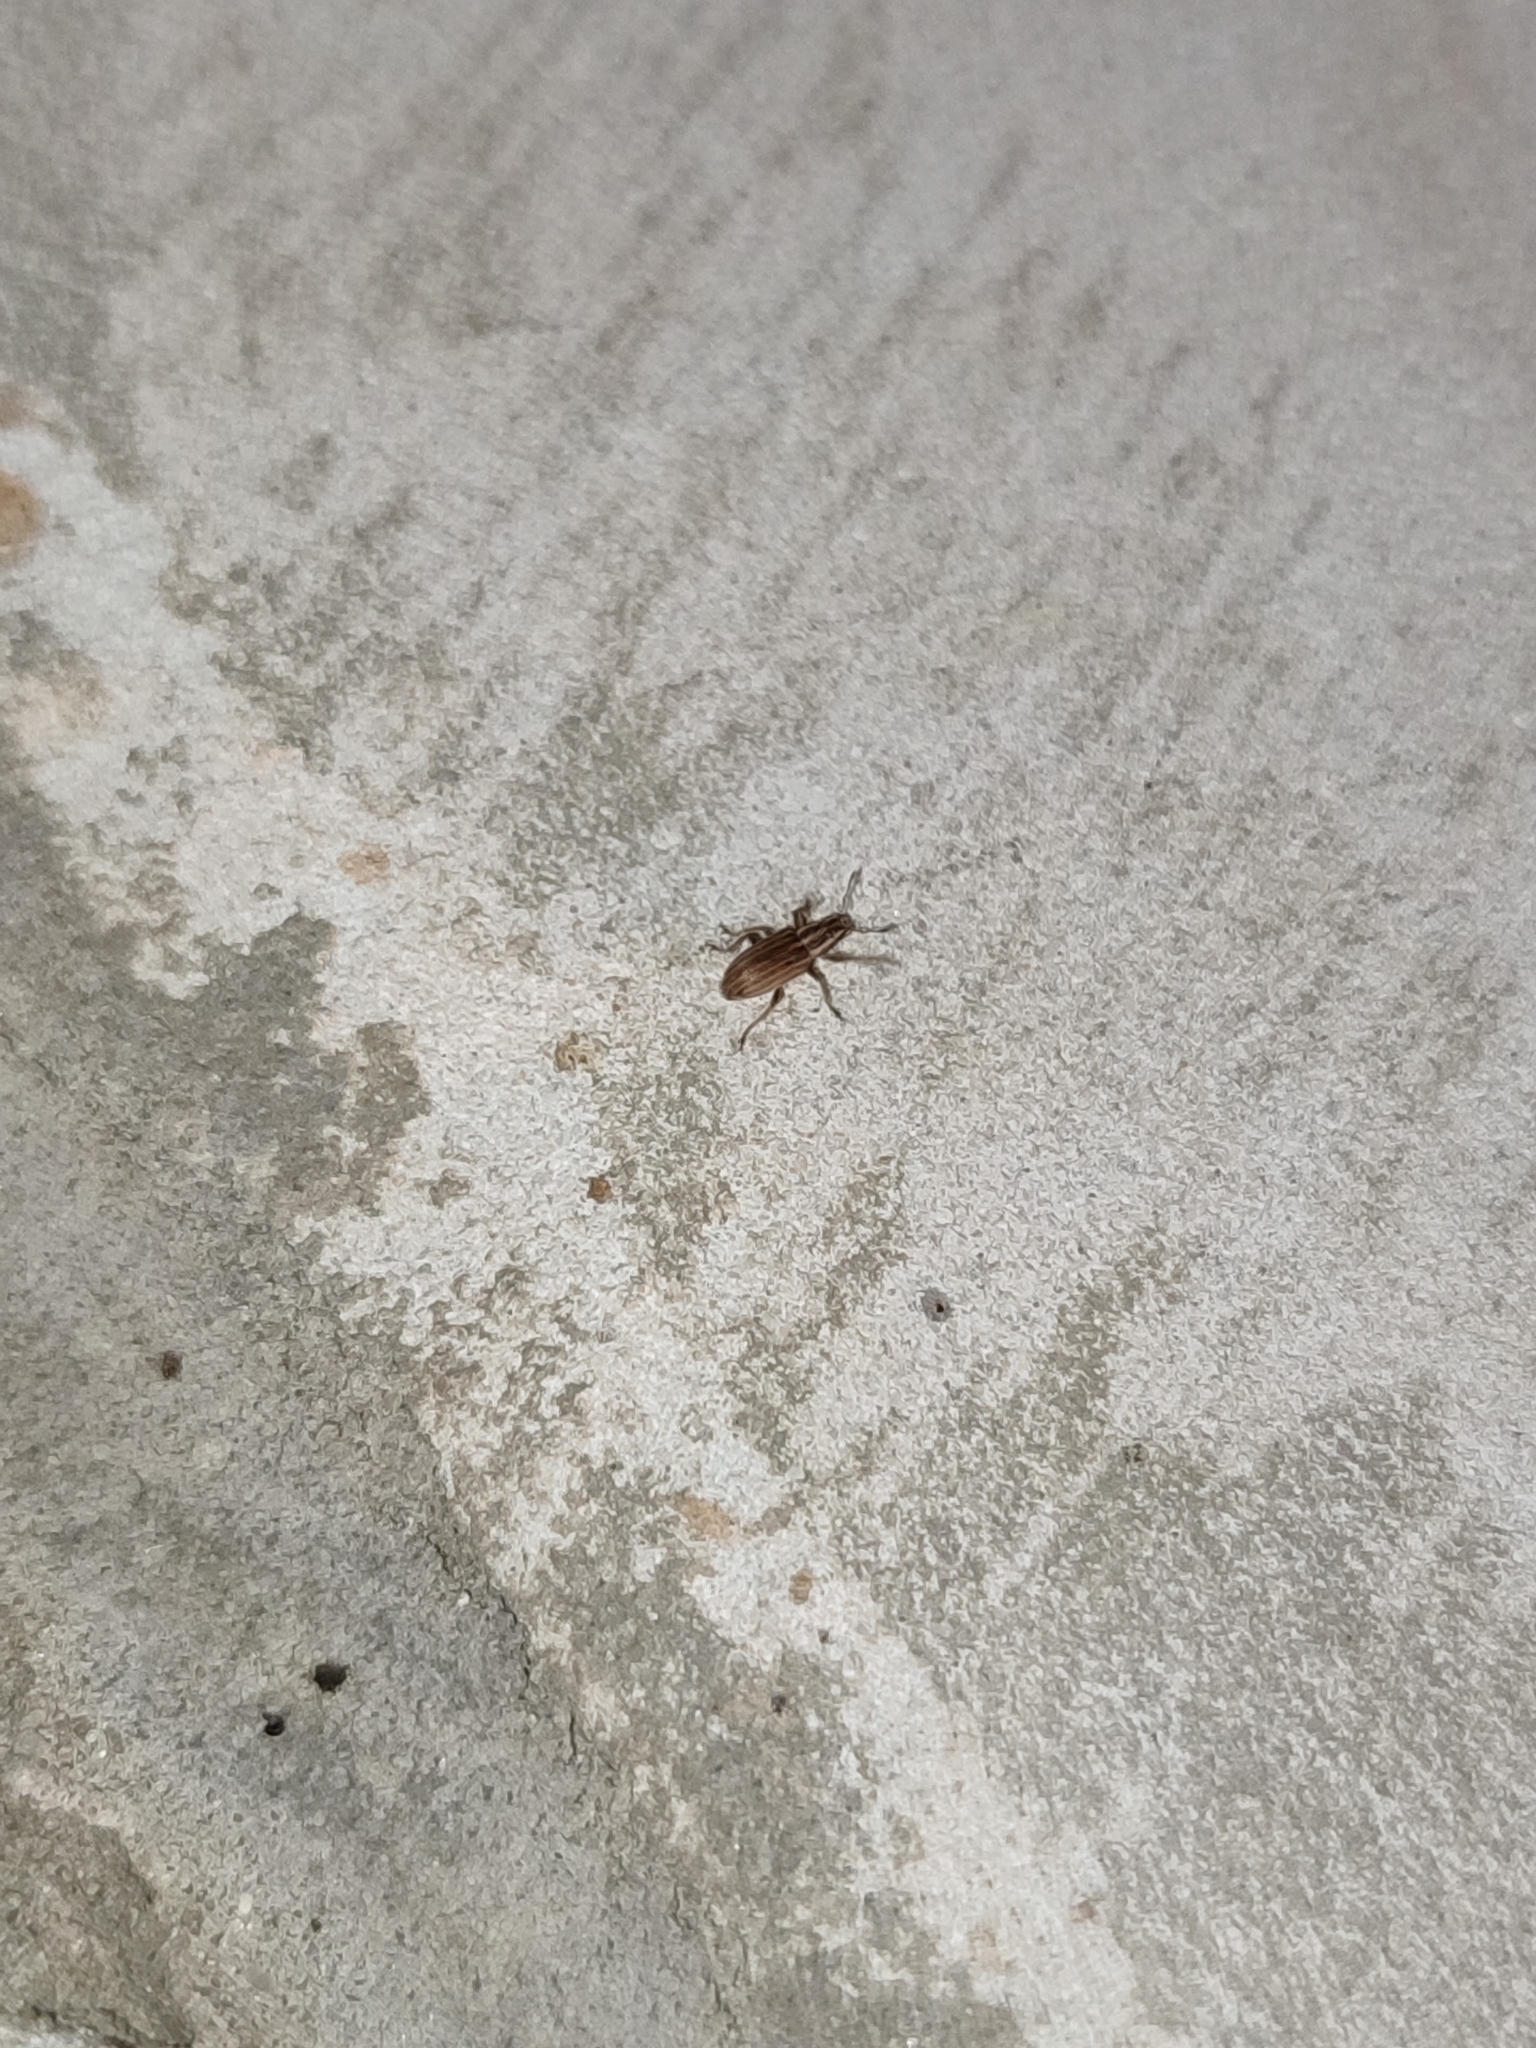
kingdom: Animalia
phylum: Arthropoda
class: Insecta
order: Coleoptera
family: Curculionidae
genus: Sitona
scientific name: Sitona lineatus
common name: Weevil
